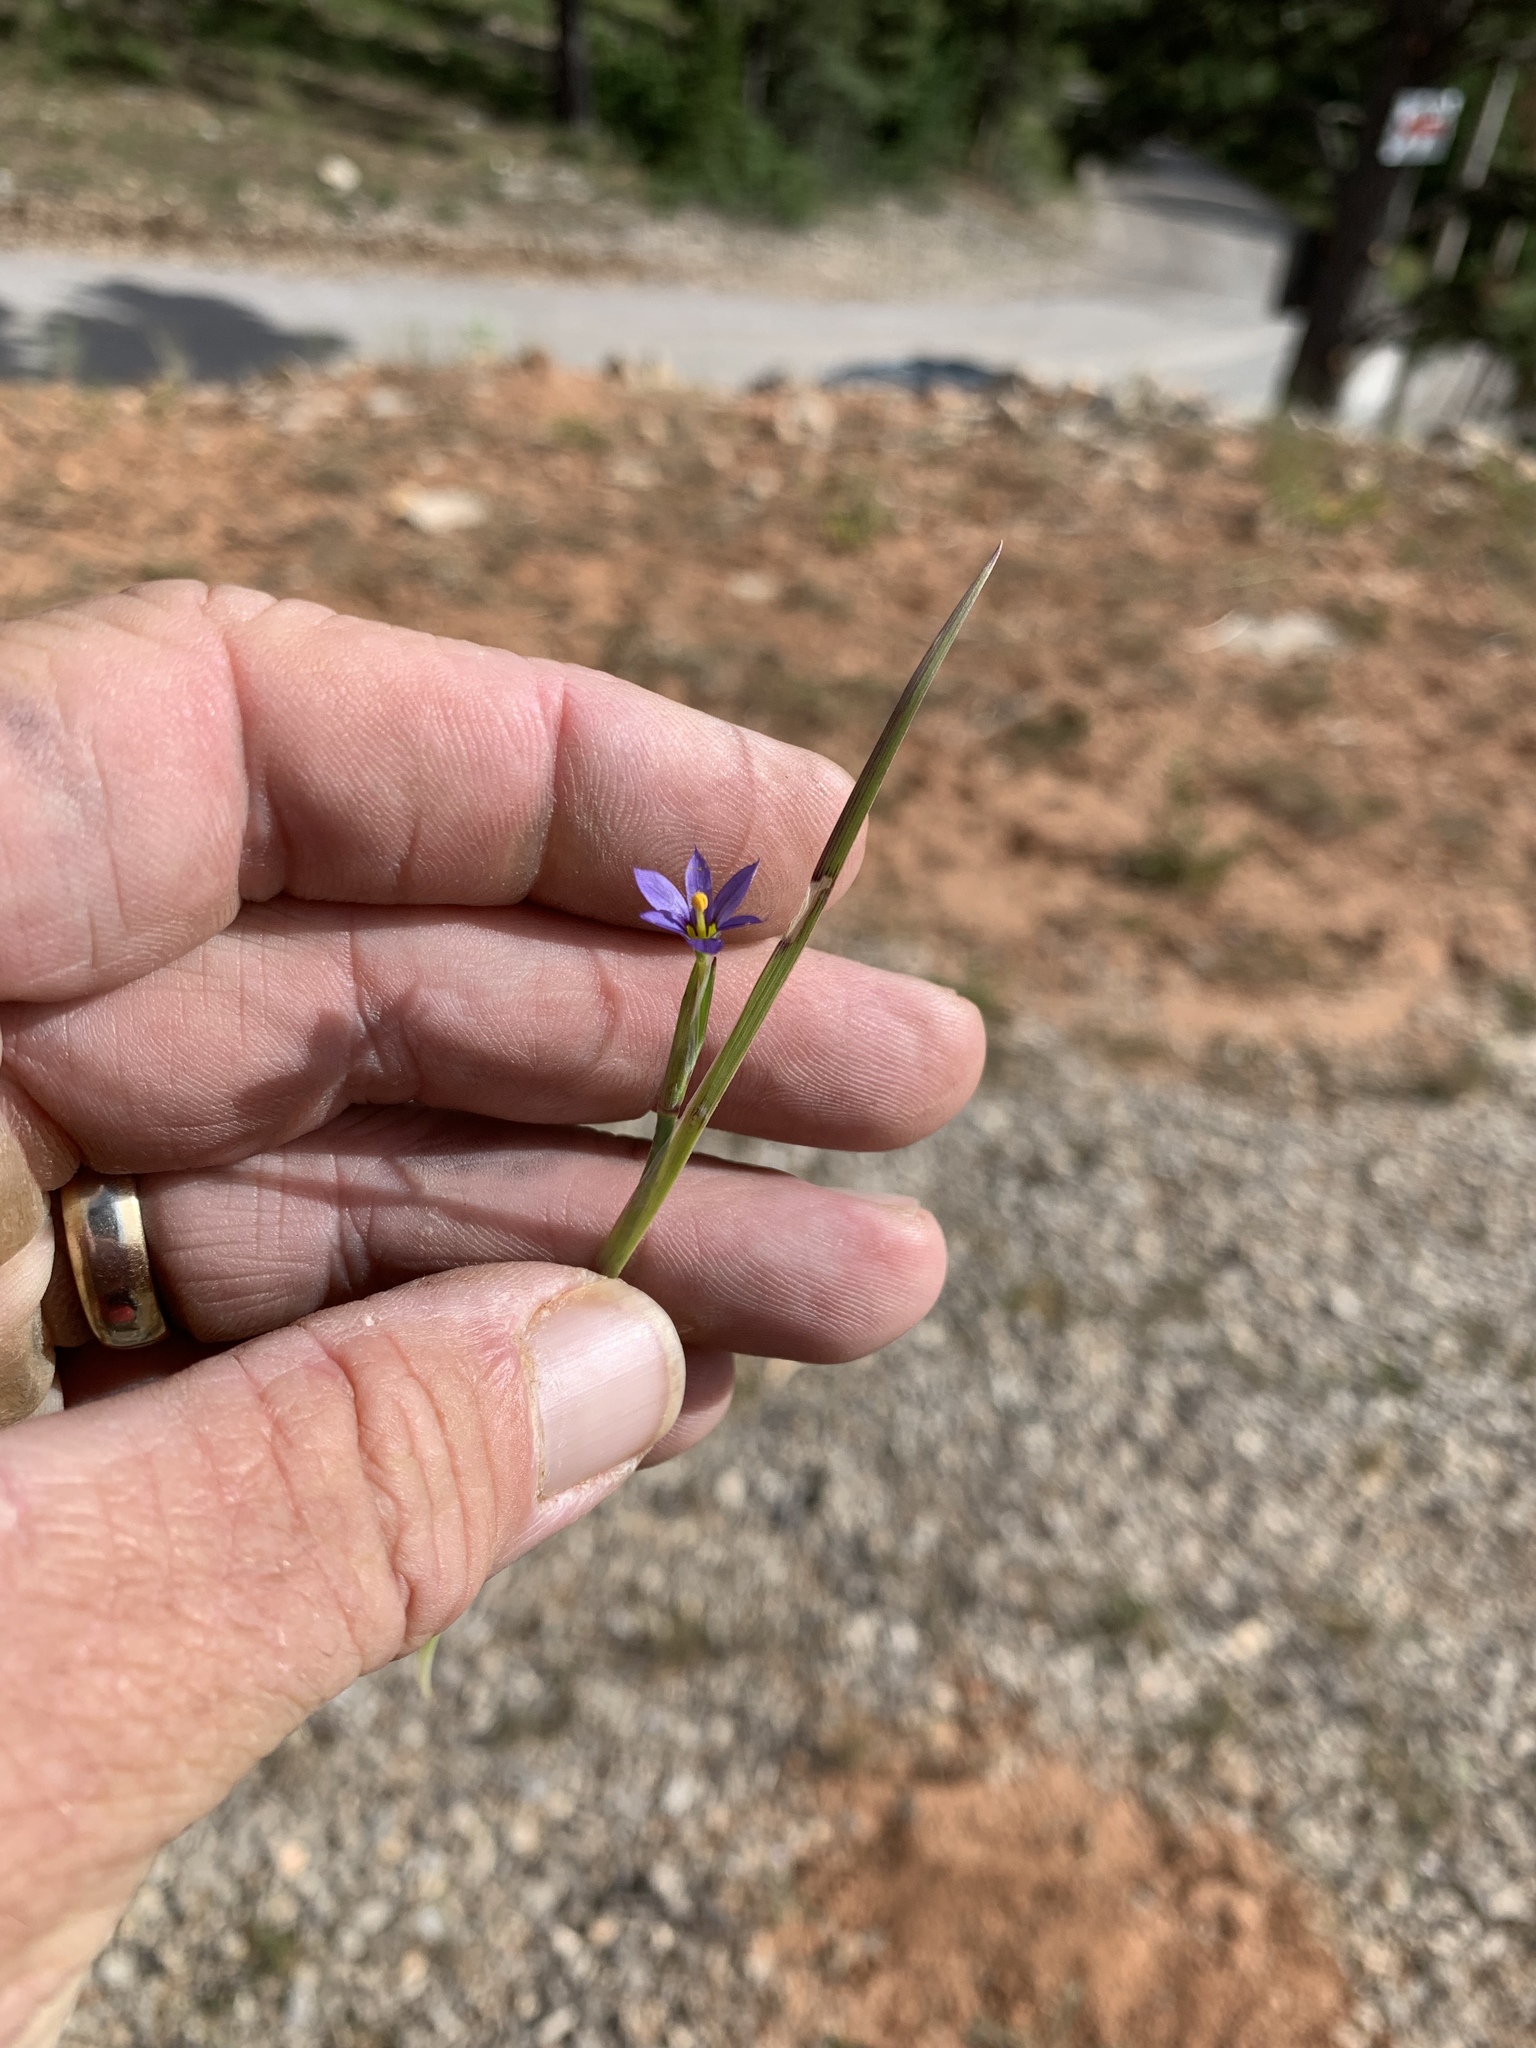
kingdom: Plantae
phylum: Tracheophyta
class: Liliopsida
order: Asparagales
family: Iridaceae
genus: Sisyrinchium
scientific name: Sisyrinchium montanum
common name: American blue-eyed-grass
